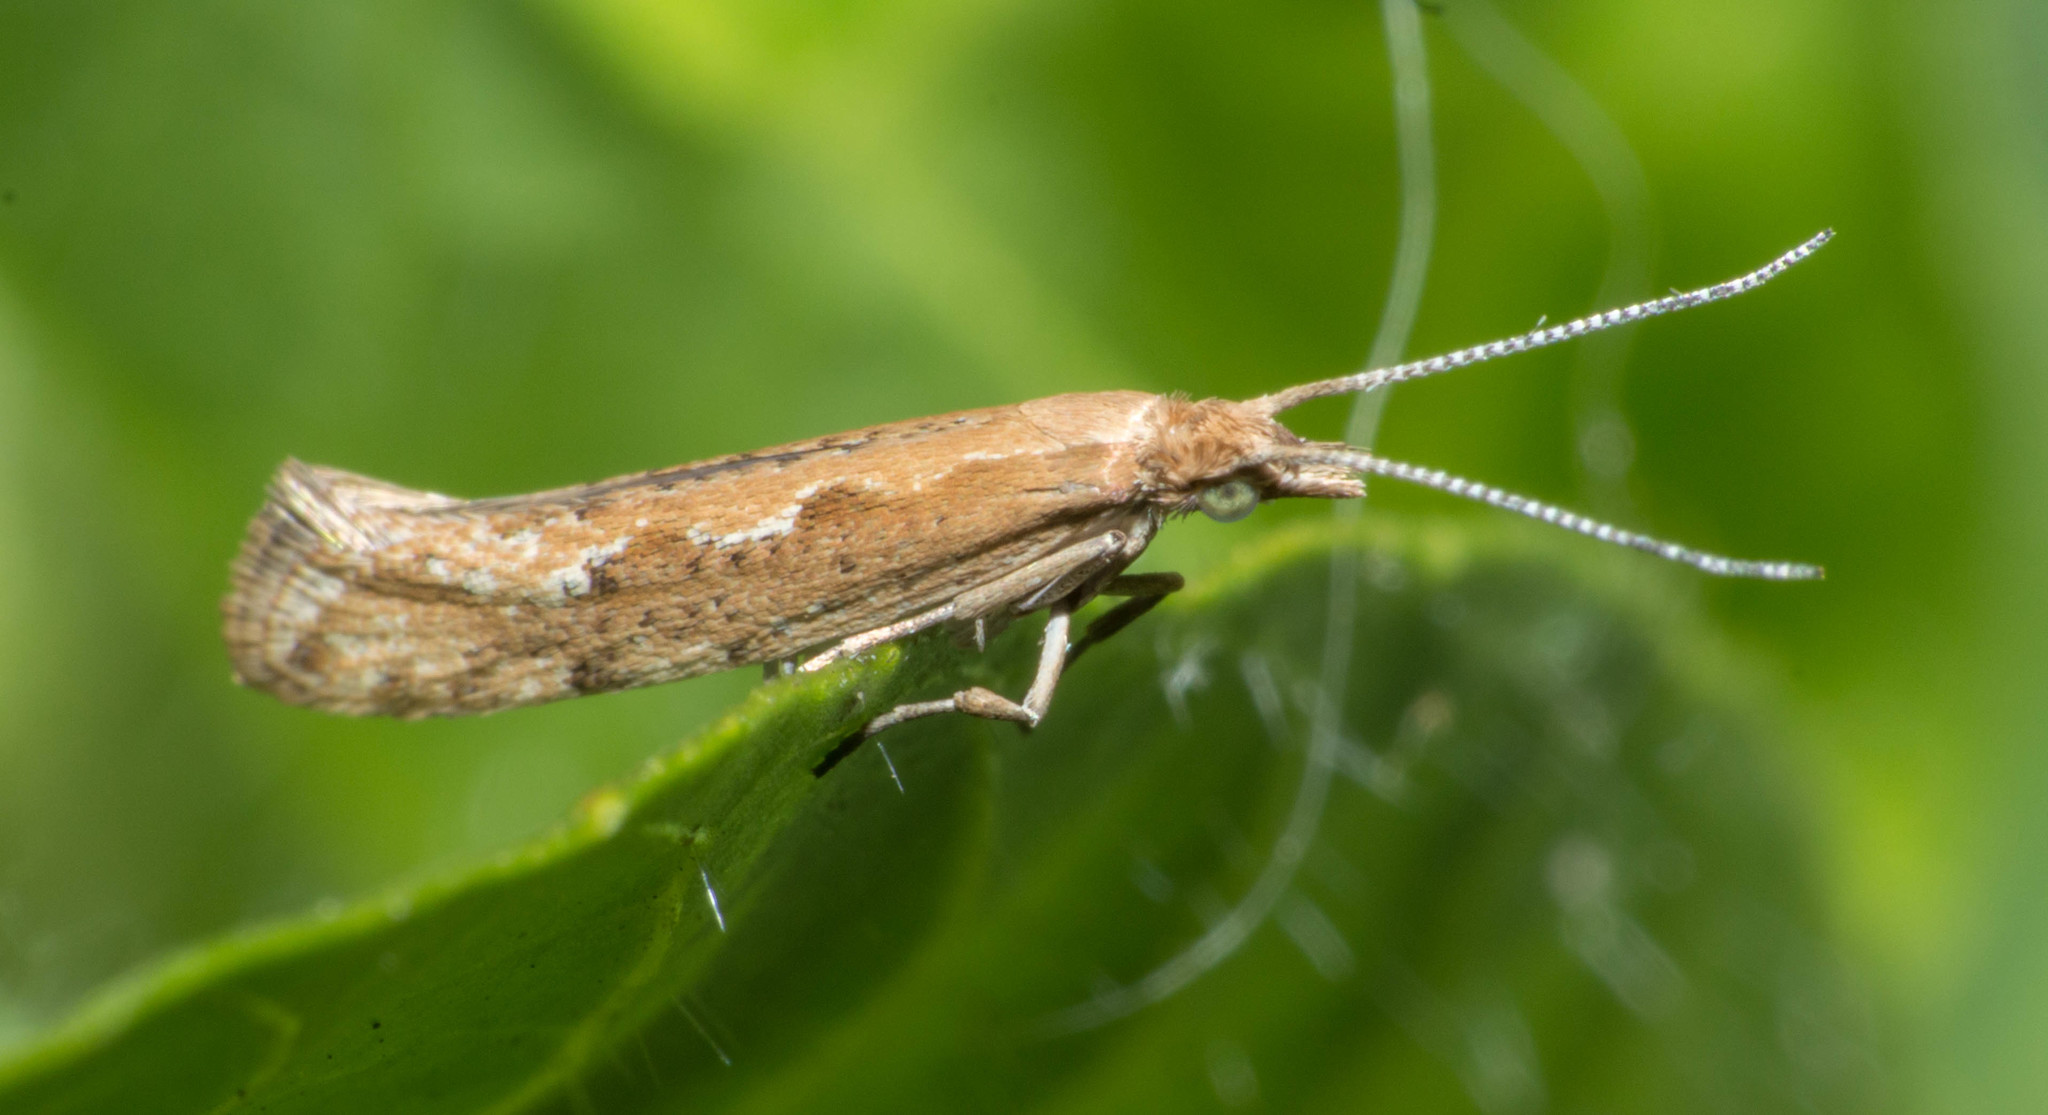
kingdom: Animalia
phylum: Arthropoda
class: Insecta
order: Lepidoptera
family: Plutellidae
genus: Plutella
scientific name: Plutella xylostella
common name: Diamond-back moth
